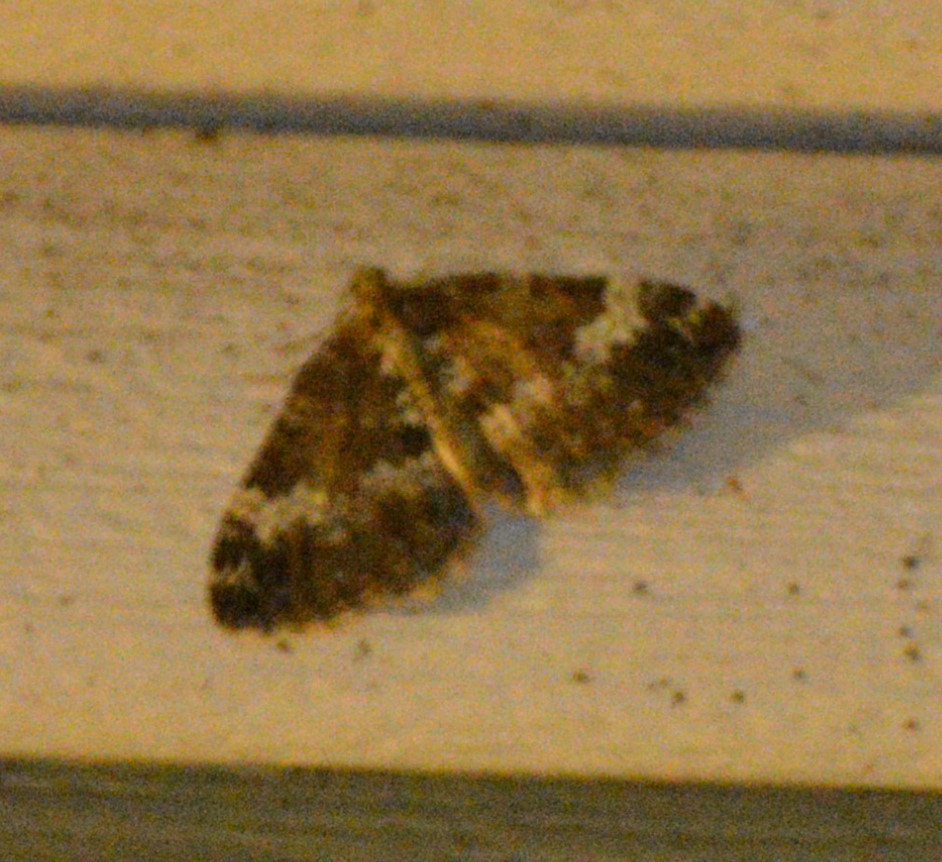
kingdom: Animalia
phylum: Arthropoda
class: Insecta
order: Lepidoptera
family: Geometridae
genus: Perizoma
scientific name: Perizoma alchemillata
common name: Small rivulet
